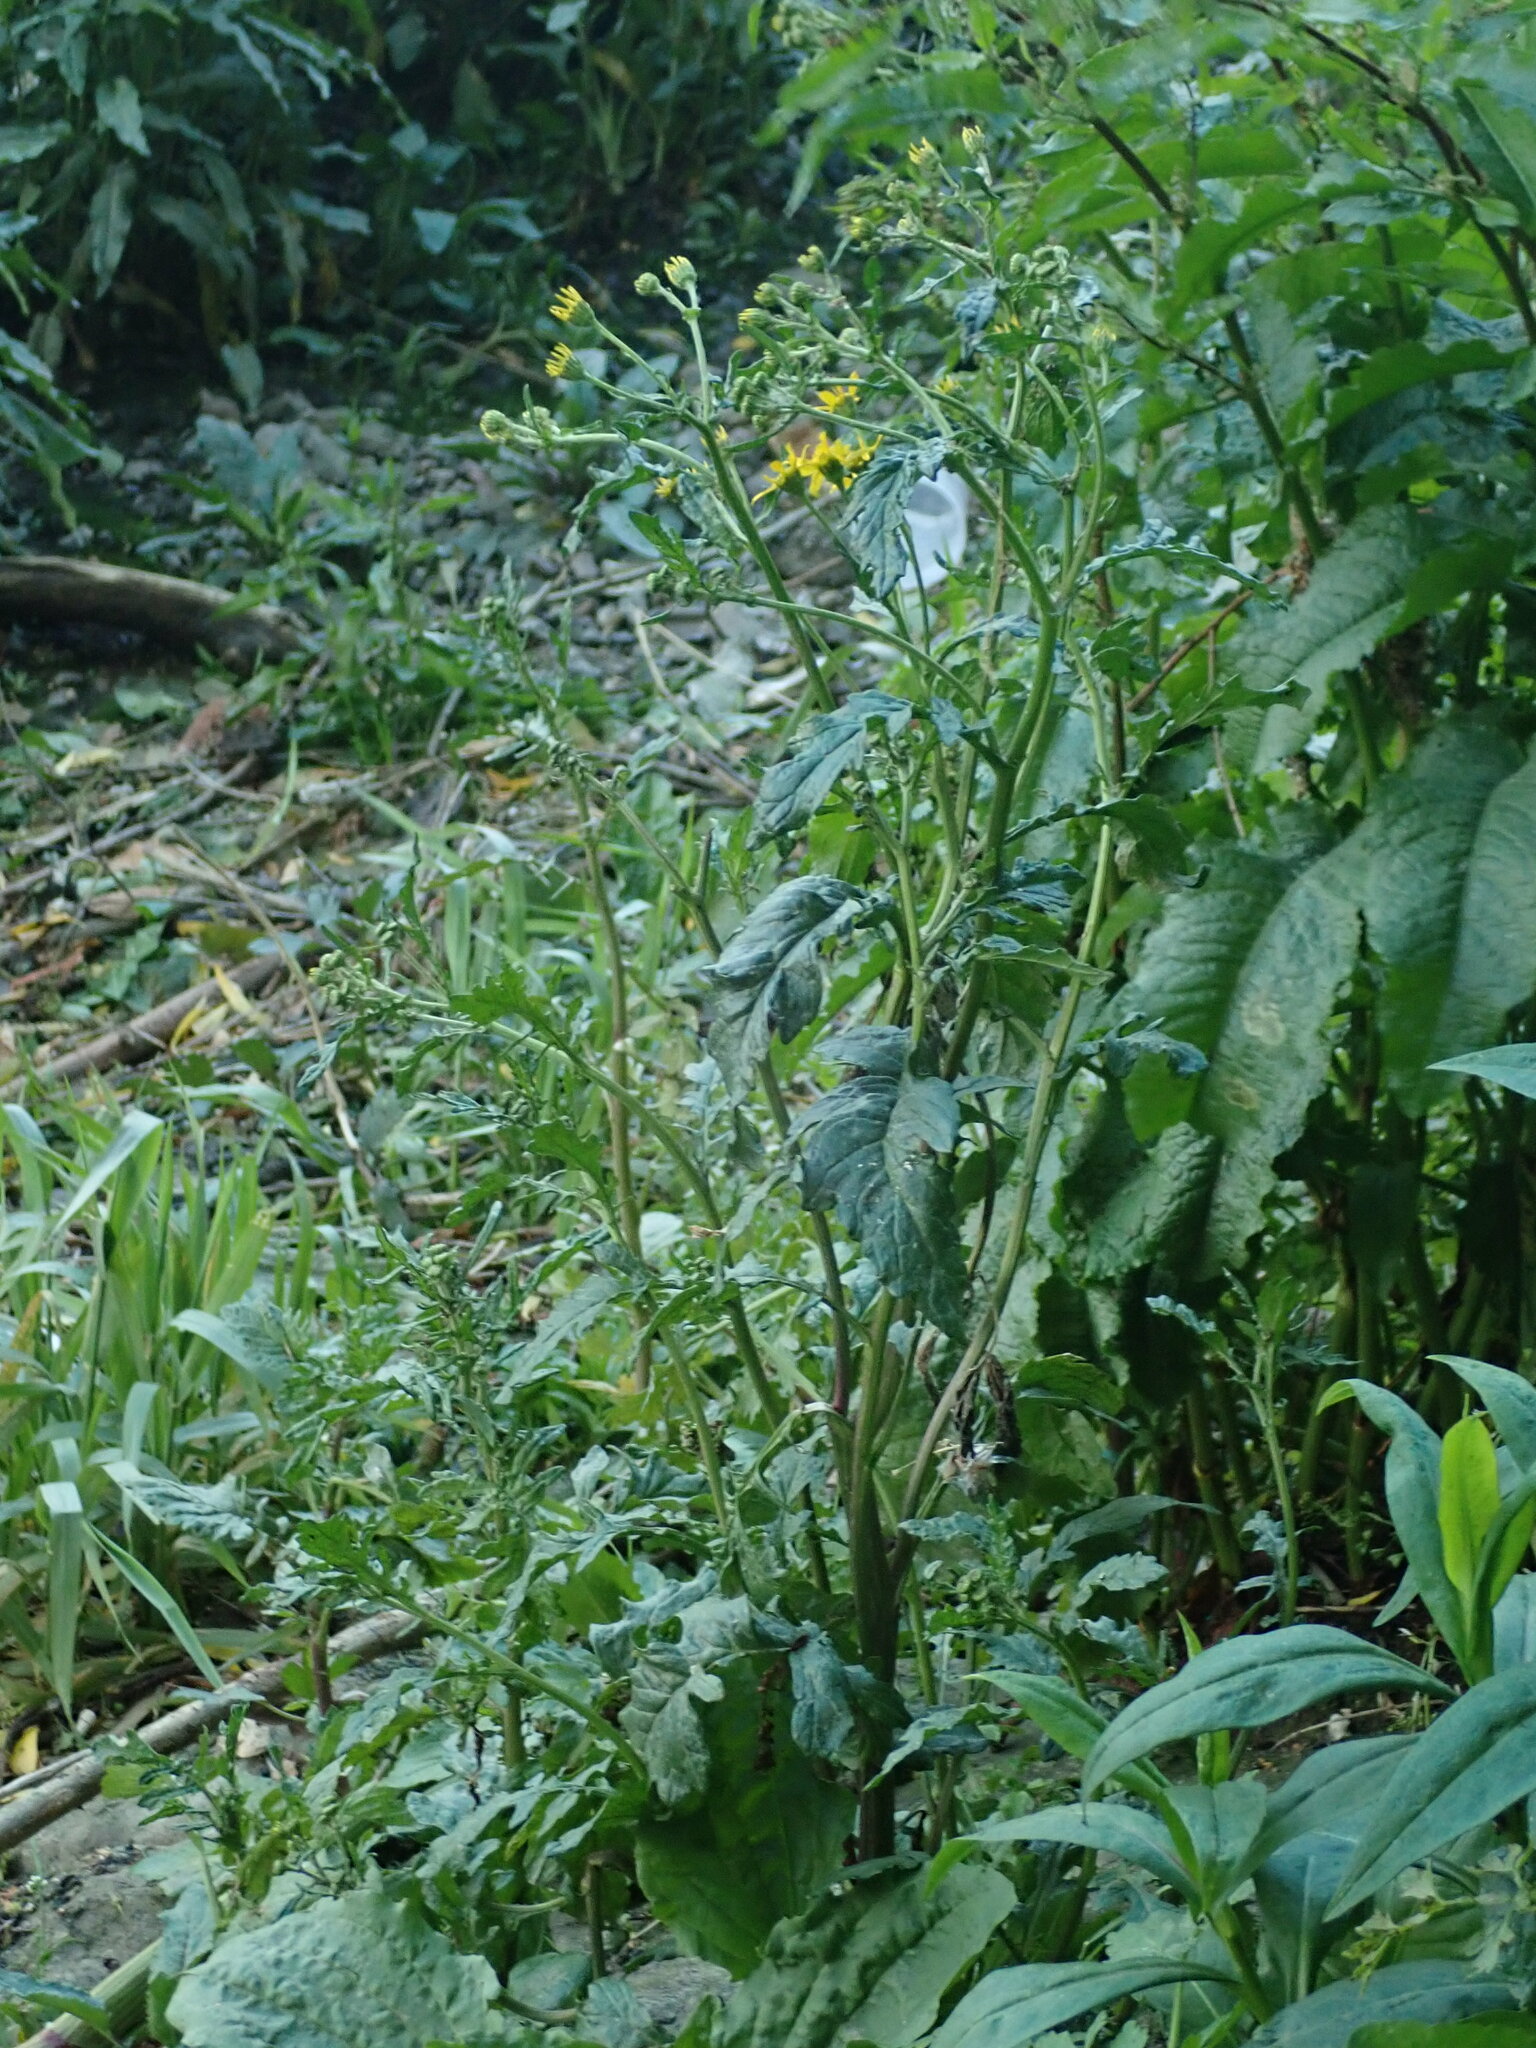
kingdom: Plantae
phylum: Tracheophyta
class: Magnoliopsida
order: Asterales
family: Asteraceae
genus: Jacobaea
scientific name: Jacobaea aquatica
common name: Water ragwort
